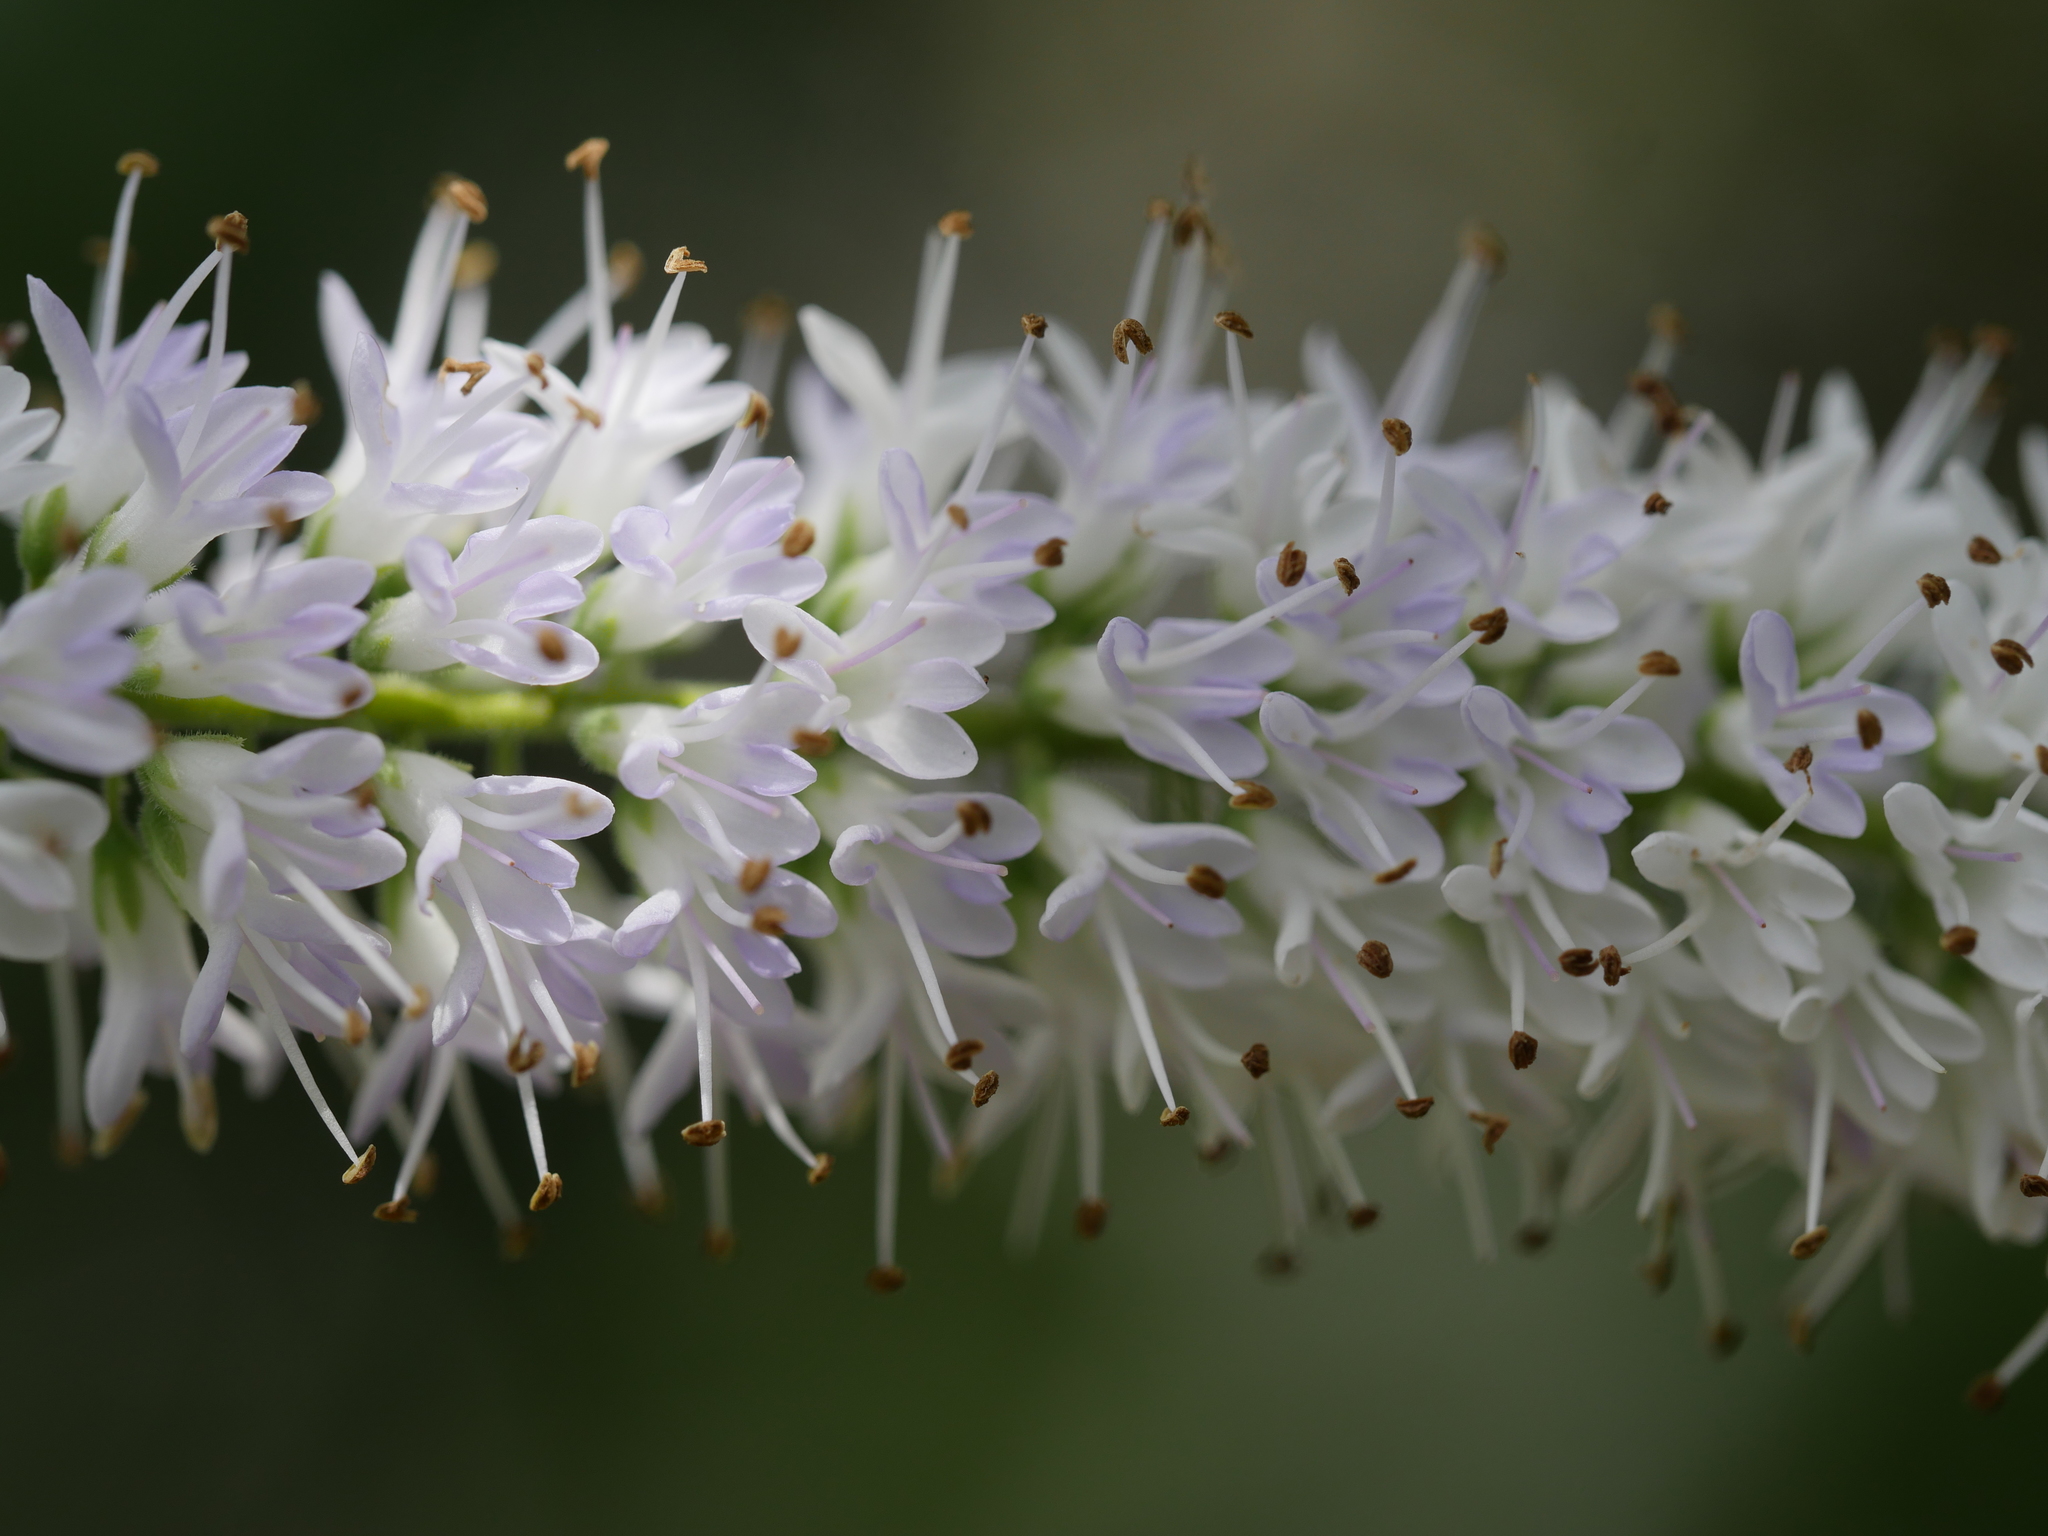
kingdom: Plantae
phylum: Tracheophyta
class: Magnoliopsida
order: Lamiales
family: Plantaginaceae
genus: Veronica
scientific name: Veronica stricta
